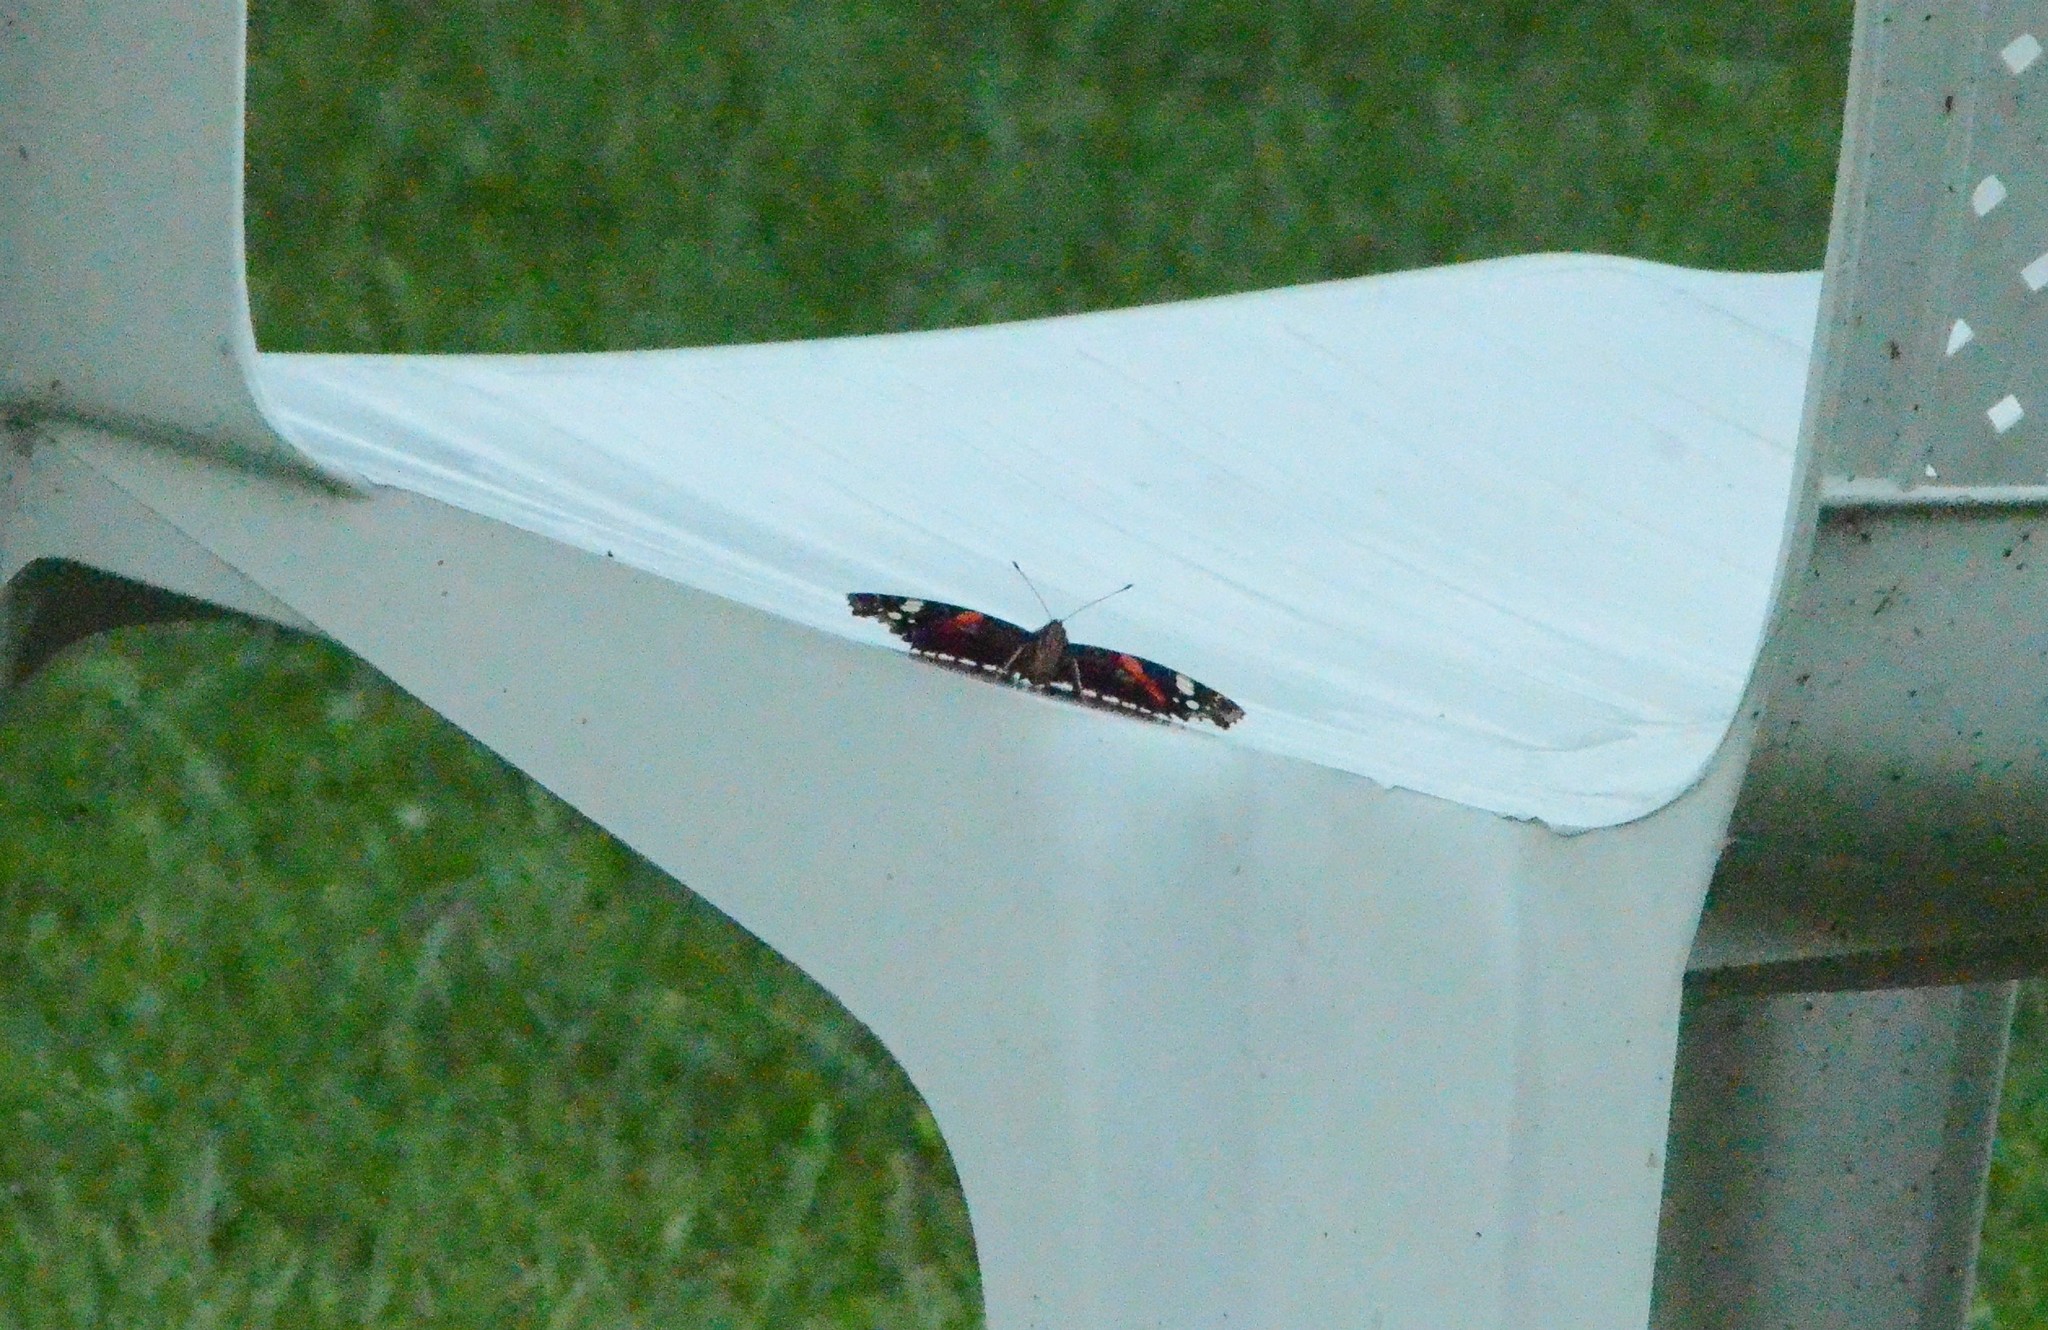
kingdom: Animalia
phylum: Arthropoda
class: Insecta
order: Lepidoptera
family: Nymphalidae
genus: Vanessa
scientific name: Vanessa atalanta
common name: Red admiral
